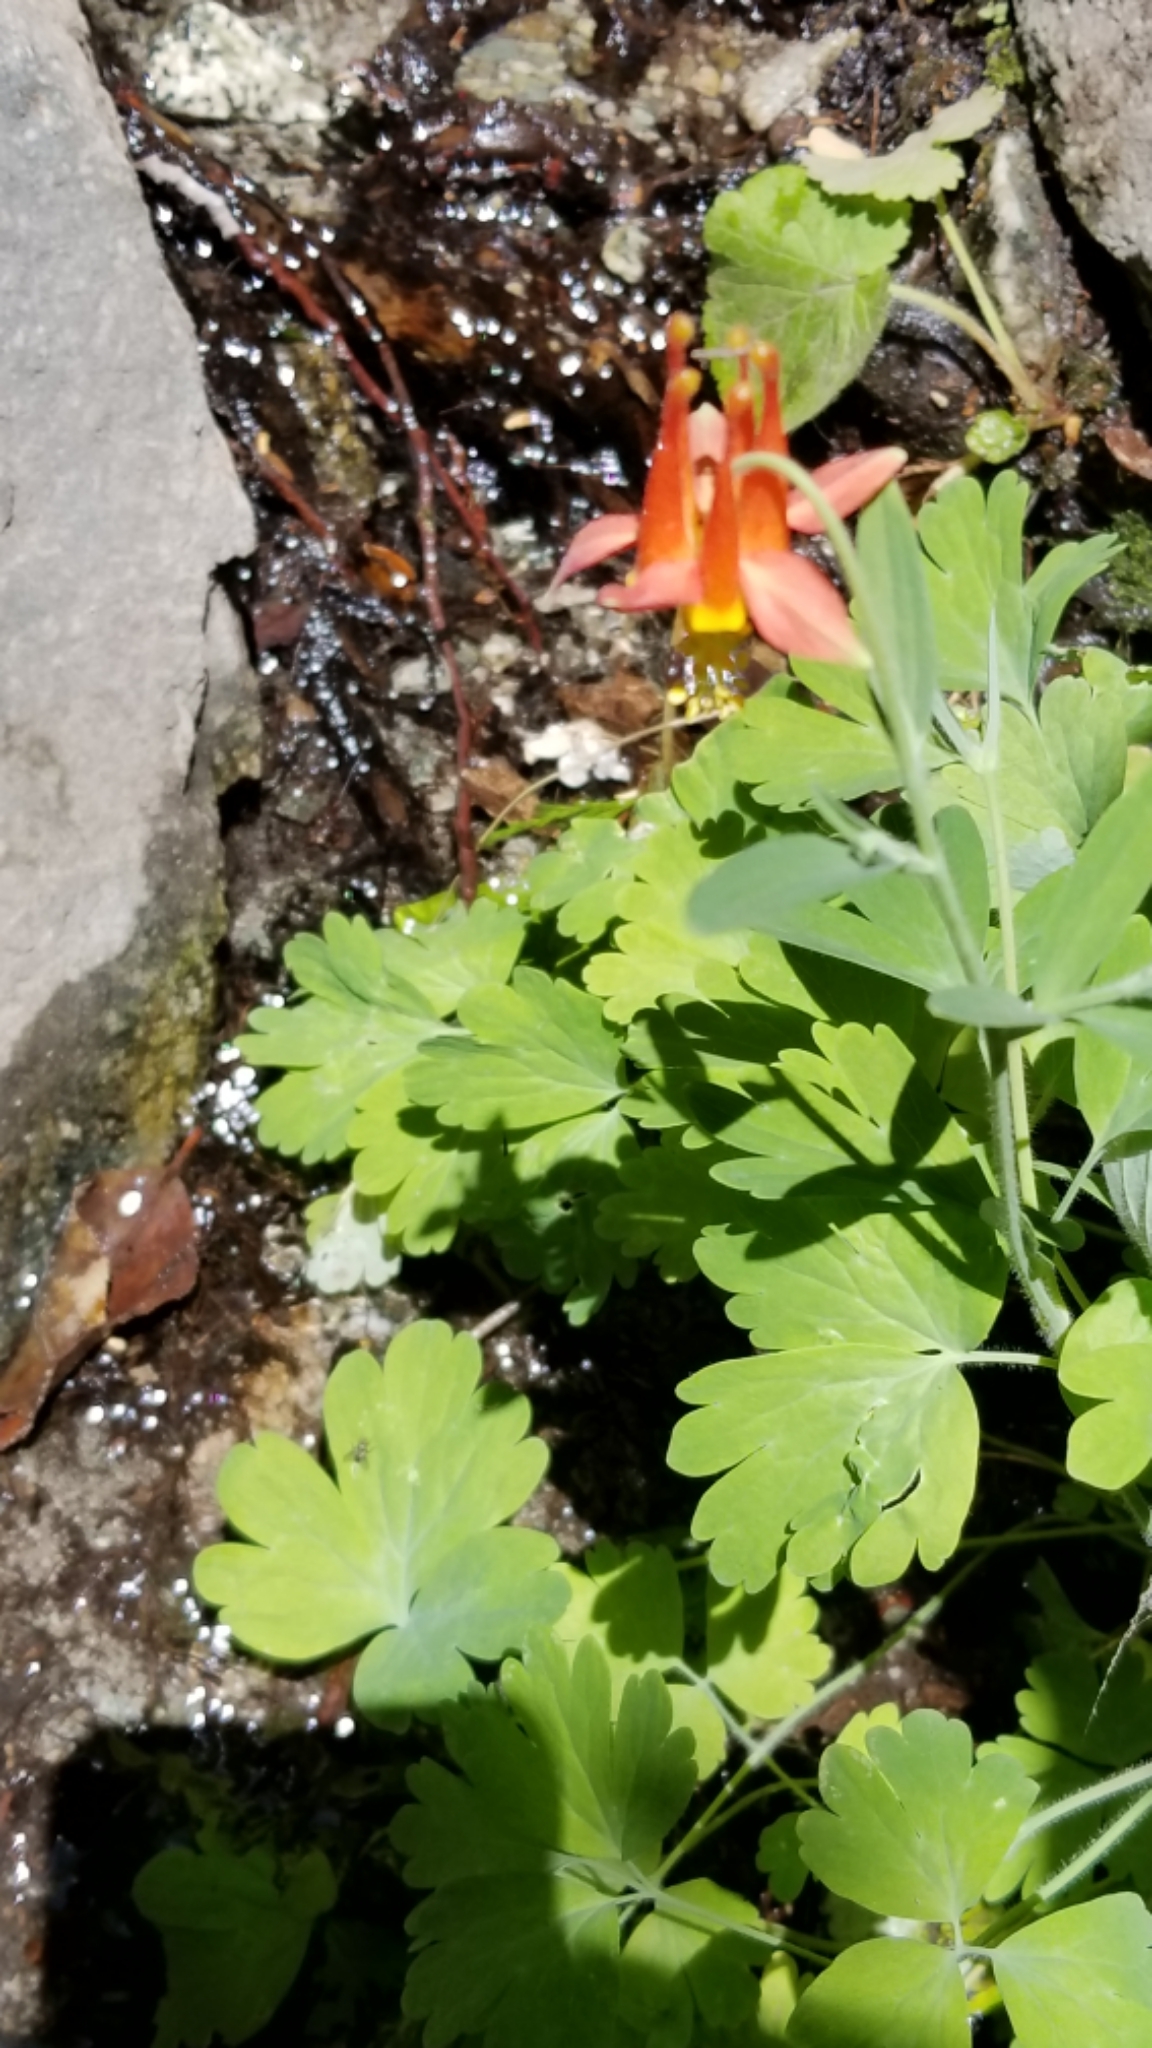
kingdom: Plantae
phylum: Tracheophyta
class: Magnoliopsida
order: Ranunculales
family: Ranunculaceae
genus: Aquilegia
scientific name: Aquilegia formosa
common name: Sitka columbine
